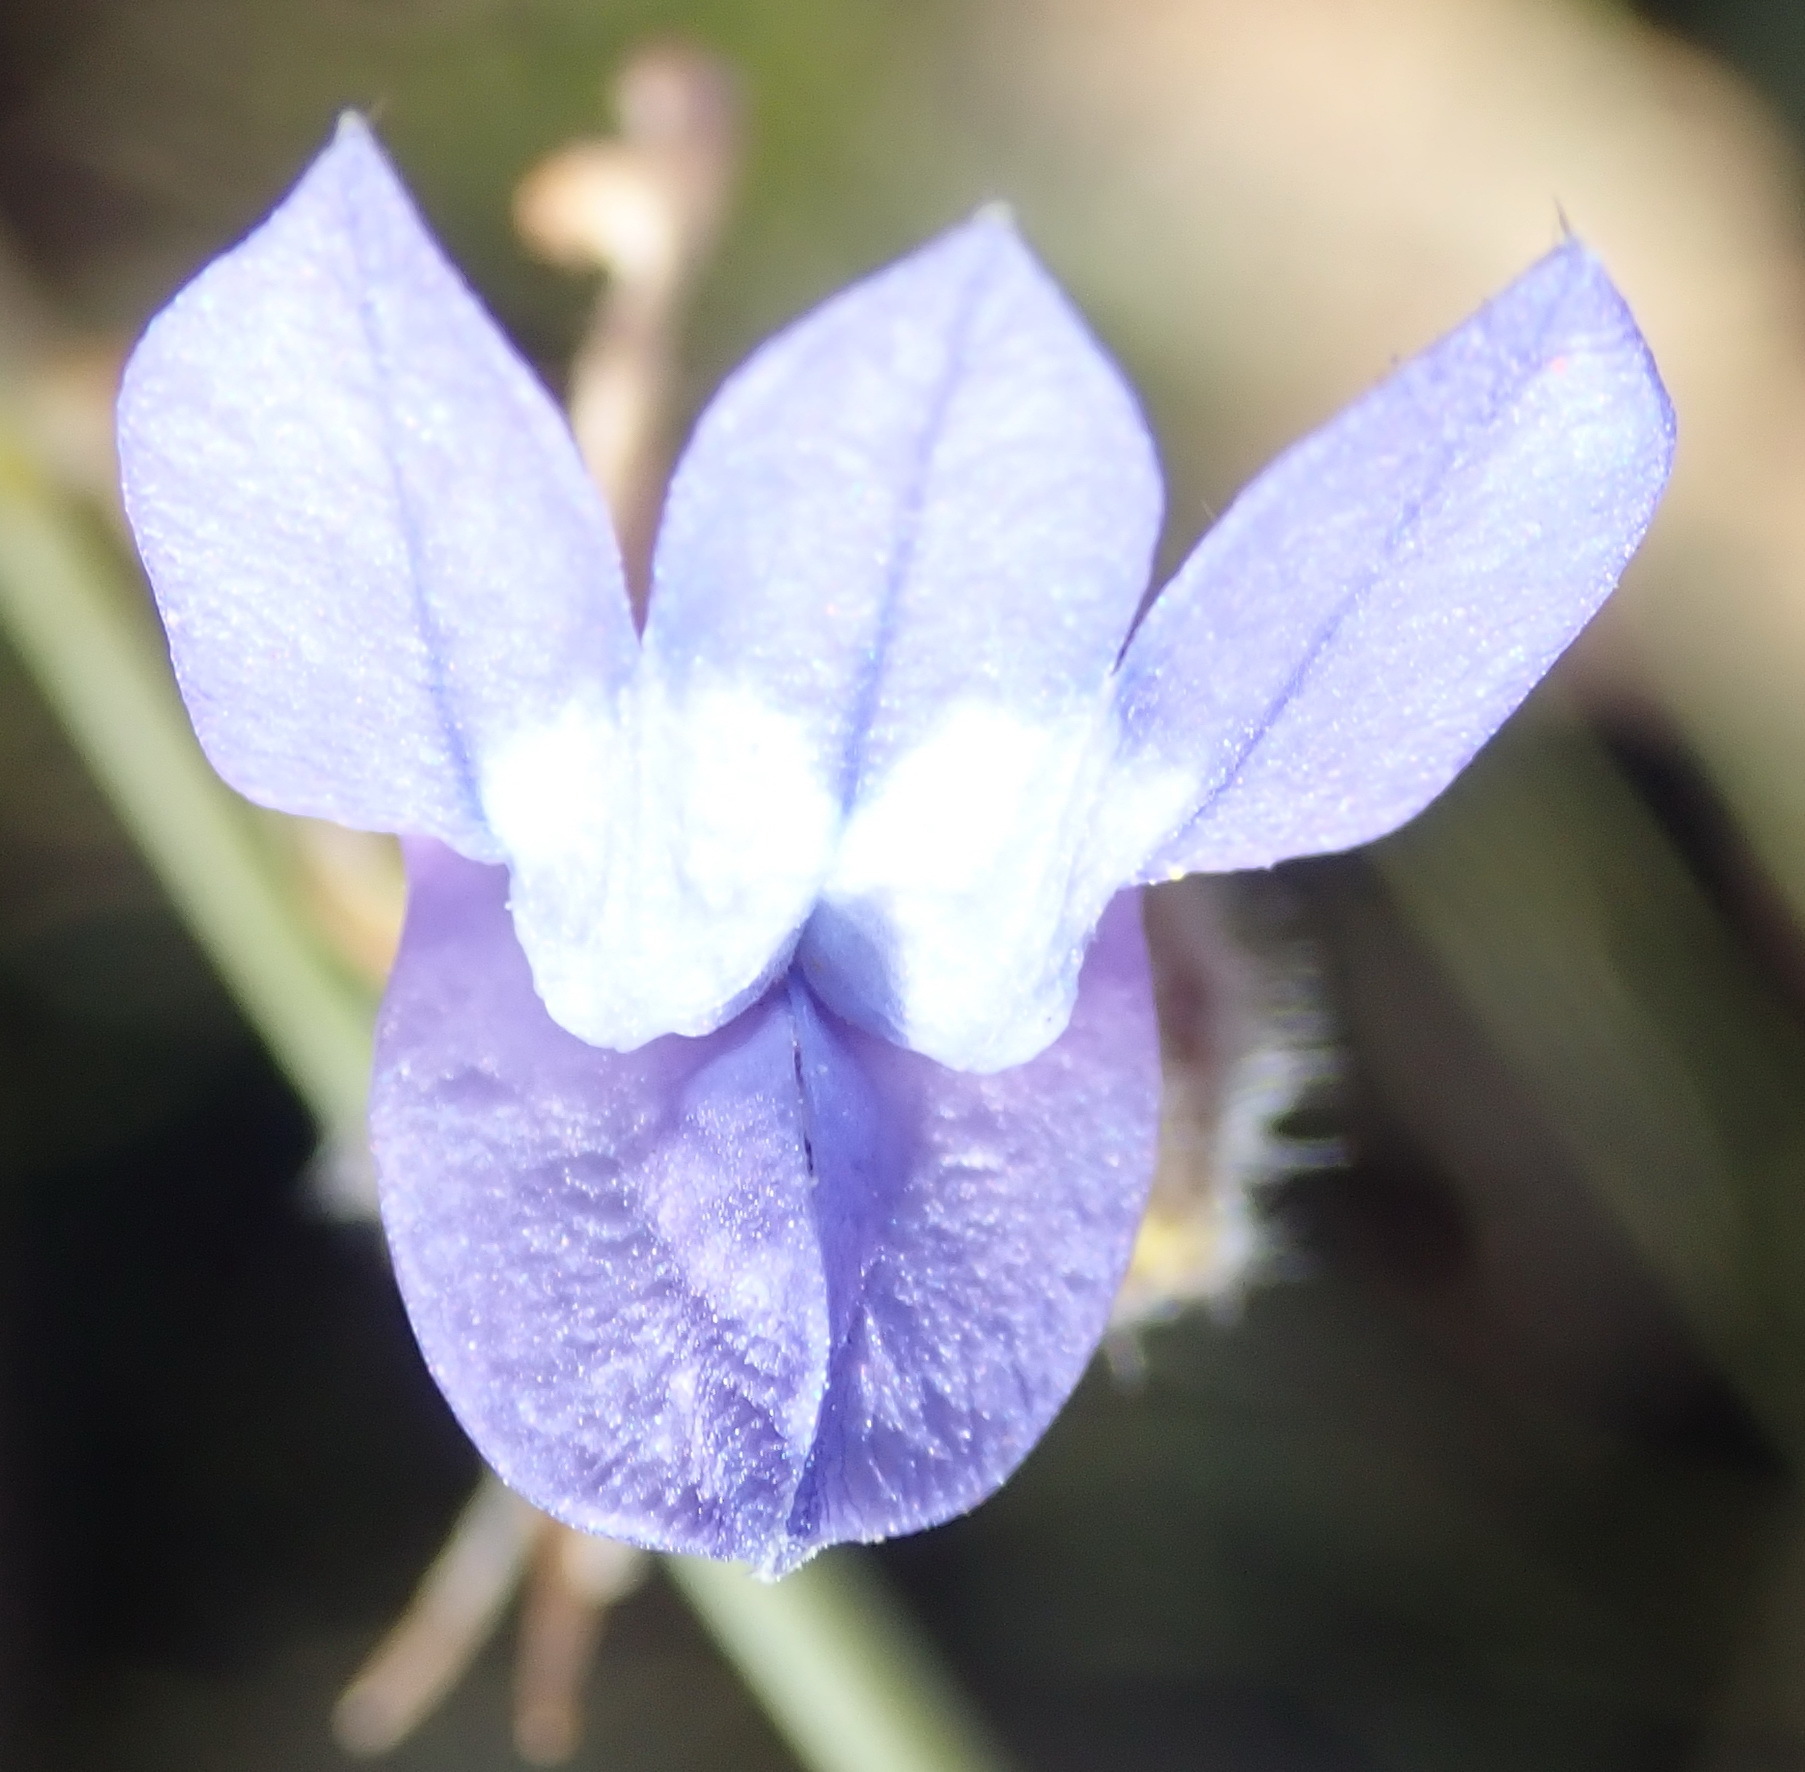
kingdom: Plantae
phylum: Tracheophyta
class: Magnoliopsida
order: Asterales
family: Campanulaceae
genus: Lobelia
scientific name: Lobelia linearis
